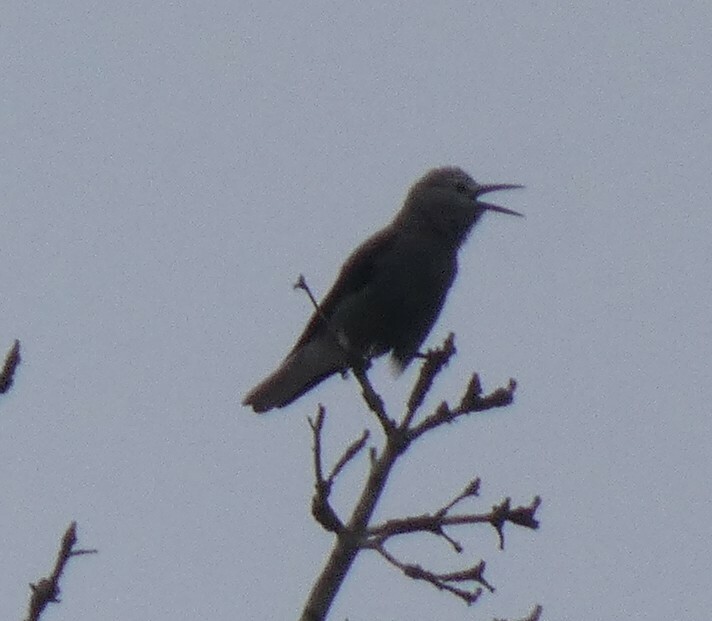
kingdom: Animalia
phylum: Chordata
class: Aves
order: Passeriformes
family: Corvidae
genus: Nucifraga
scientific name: Nucifraga columbiana
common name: Clark's nutcracker
